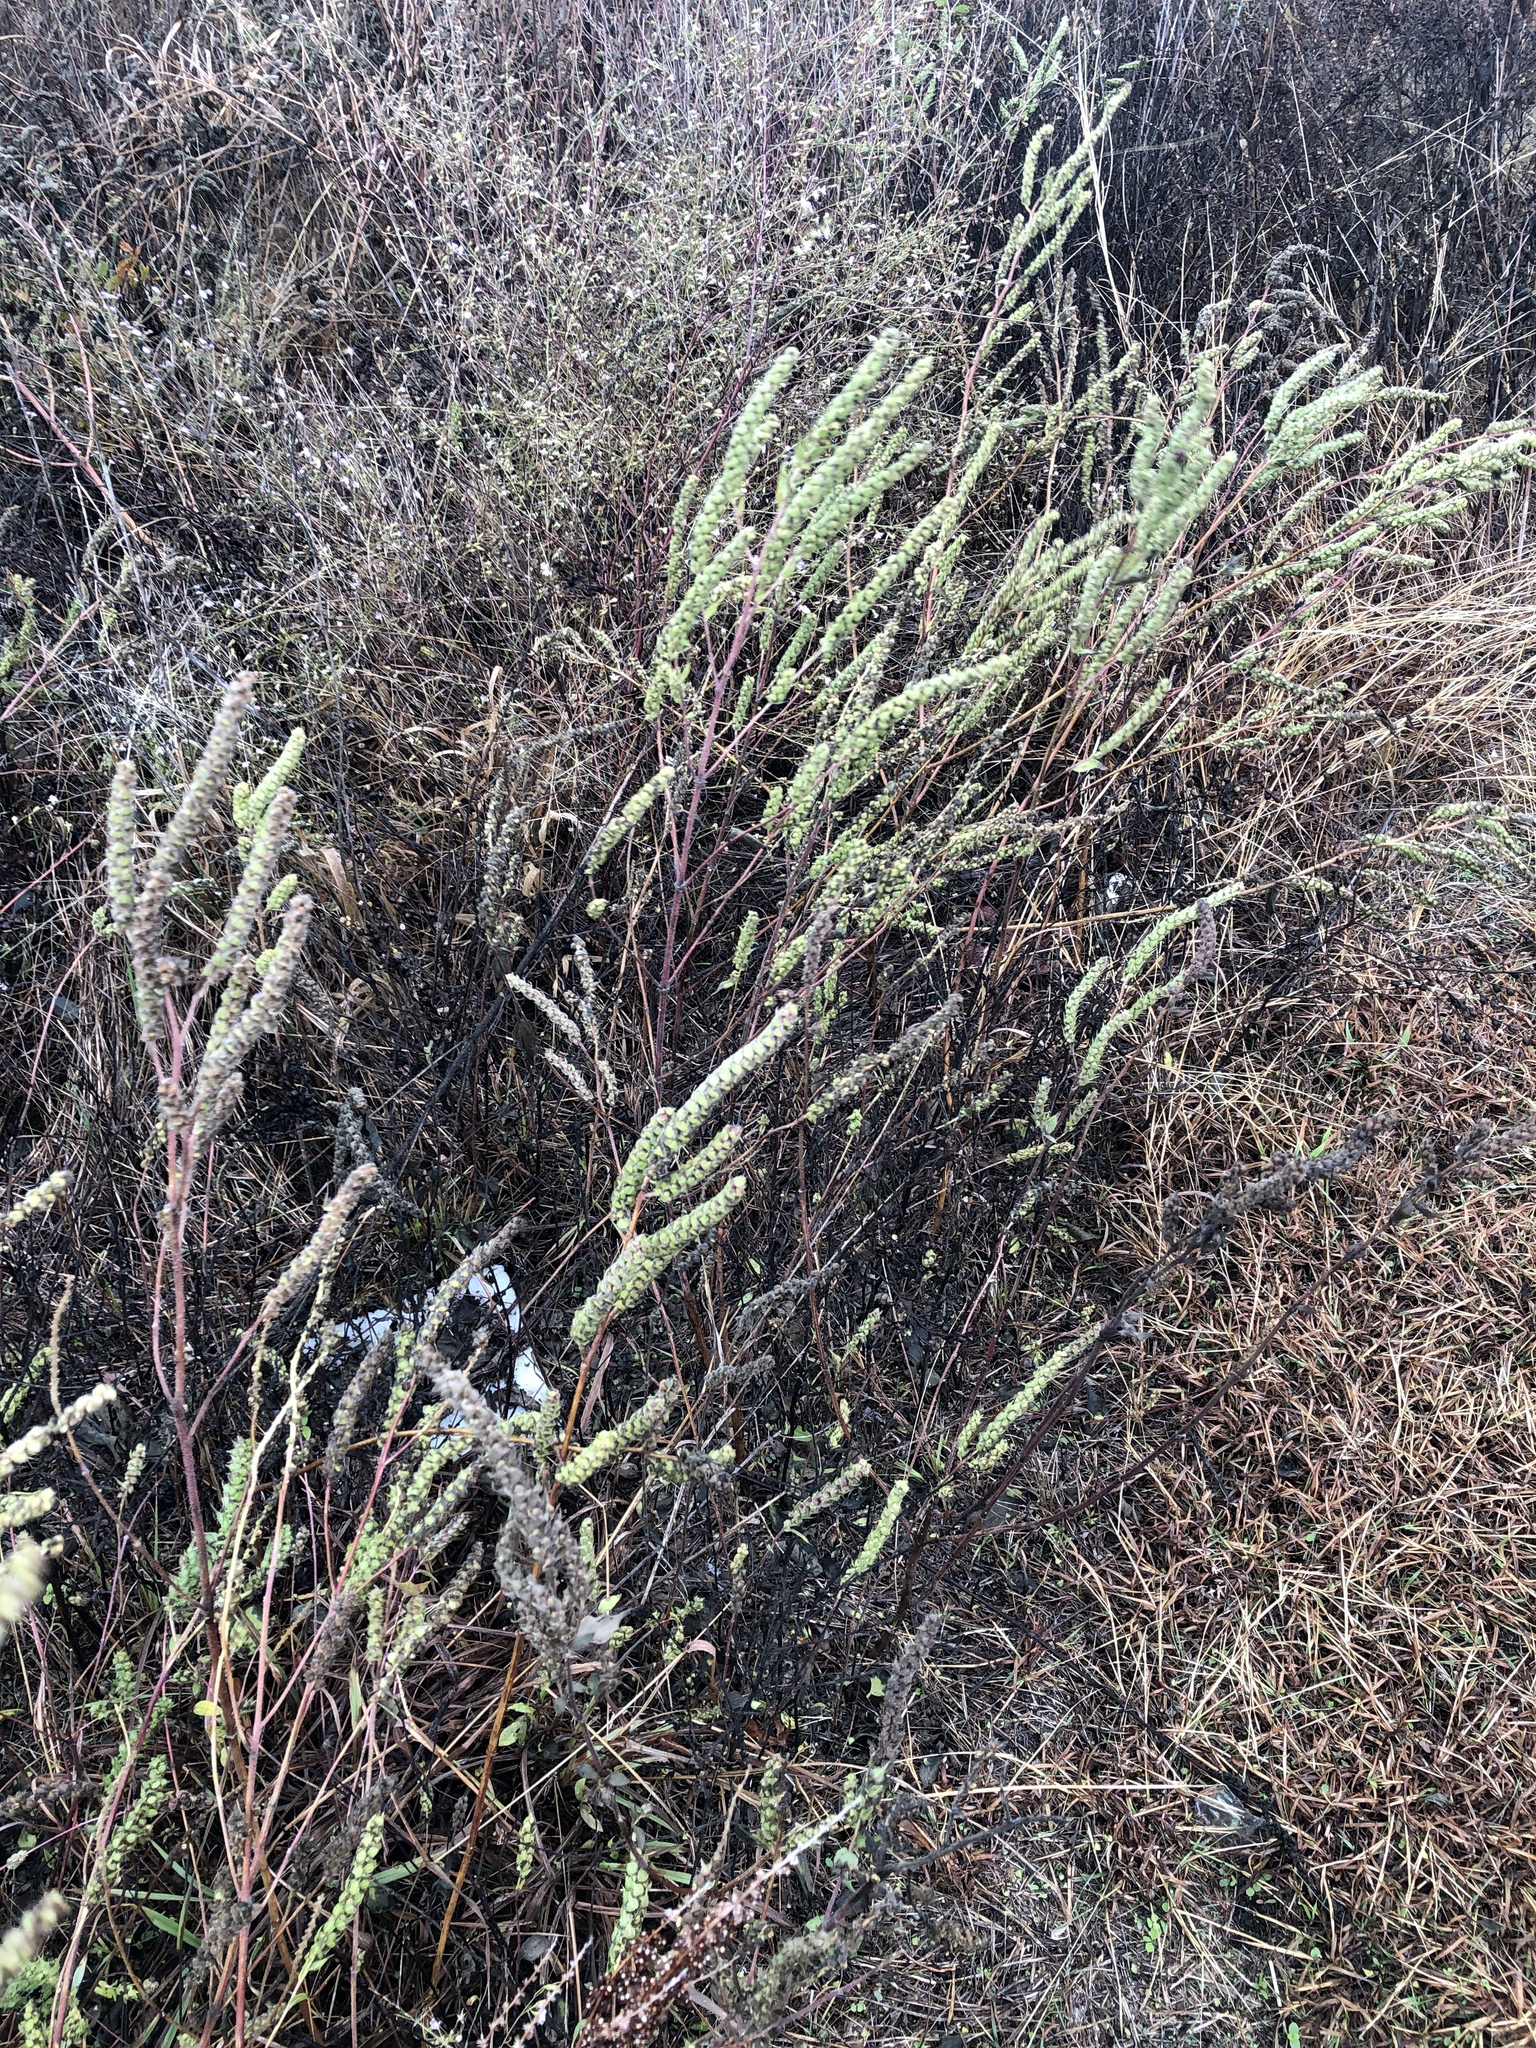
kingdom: Plantae
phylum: Tracheophyta
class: Magnoliopsida
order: Asterales
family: Asteraceae
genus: Iva
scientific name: Iva annua
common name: Marsh-elder
